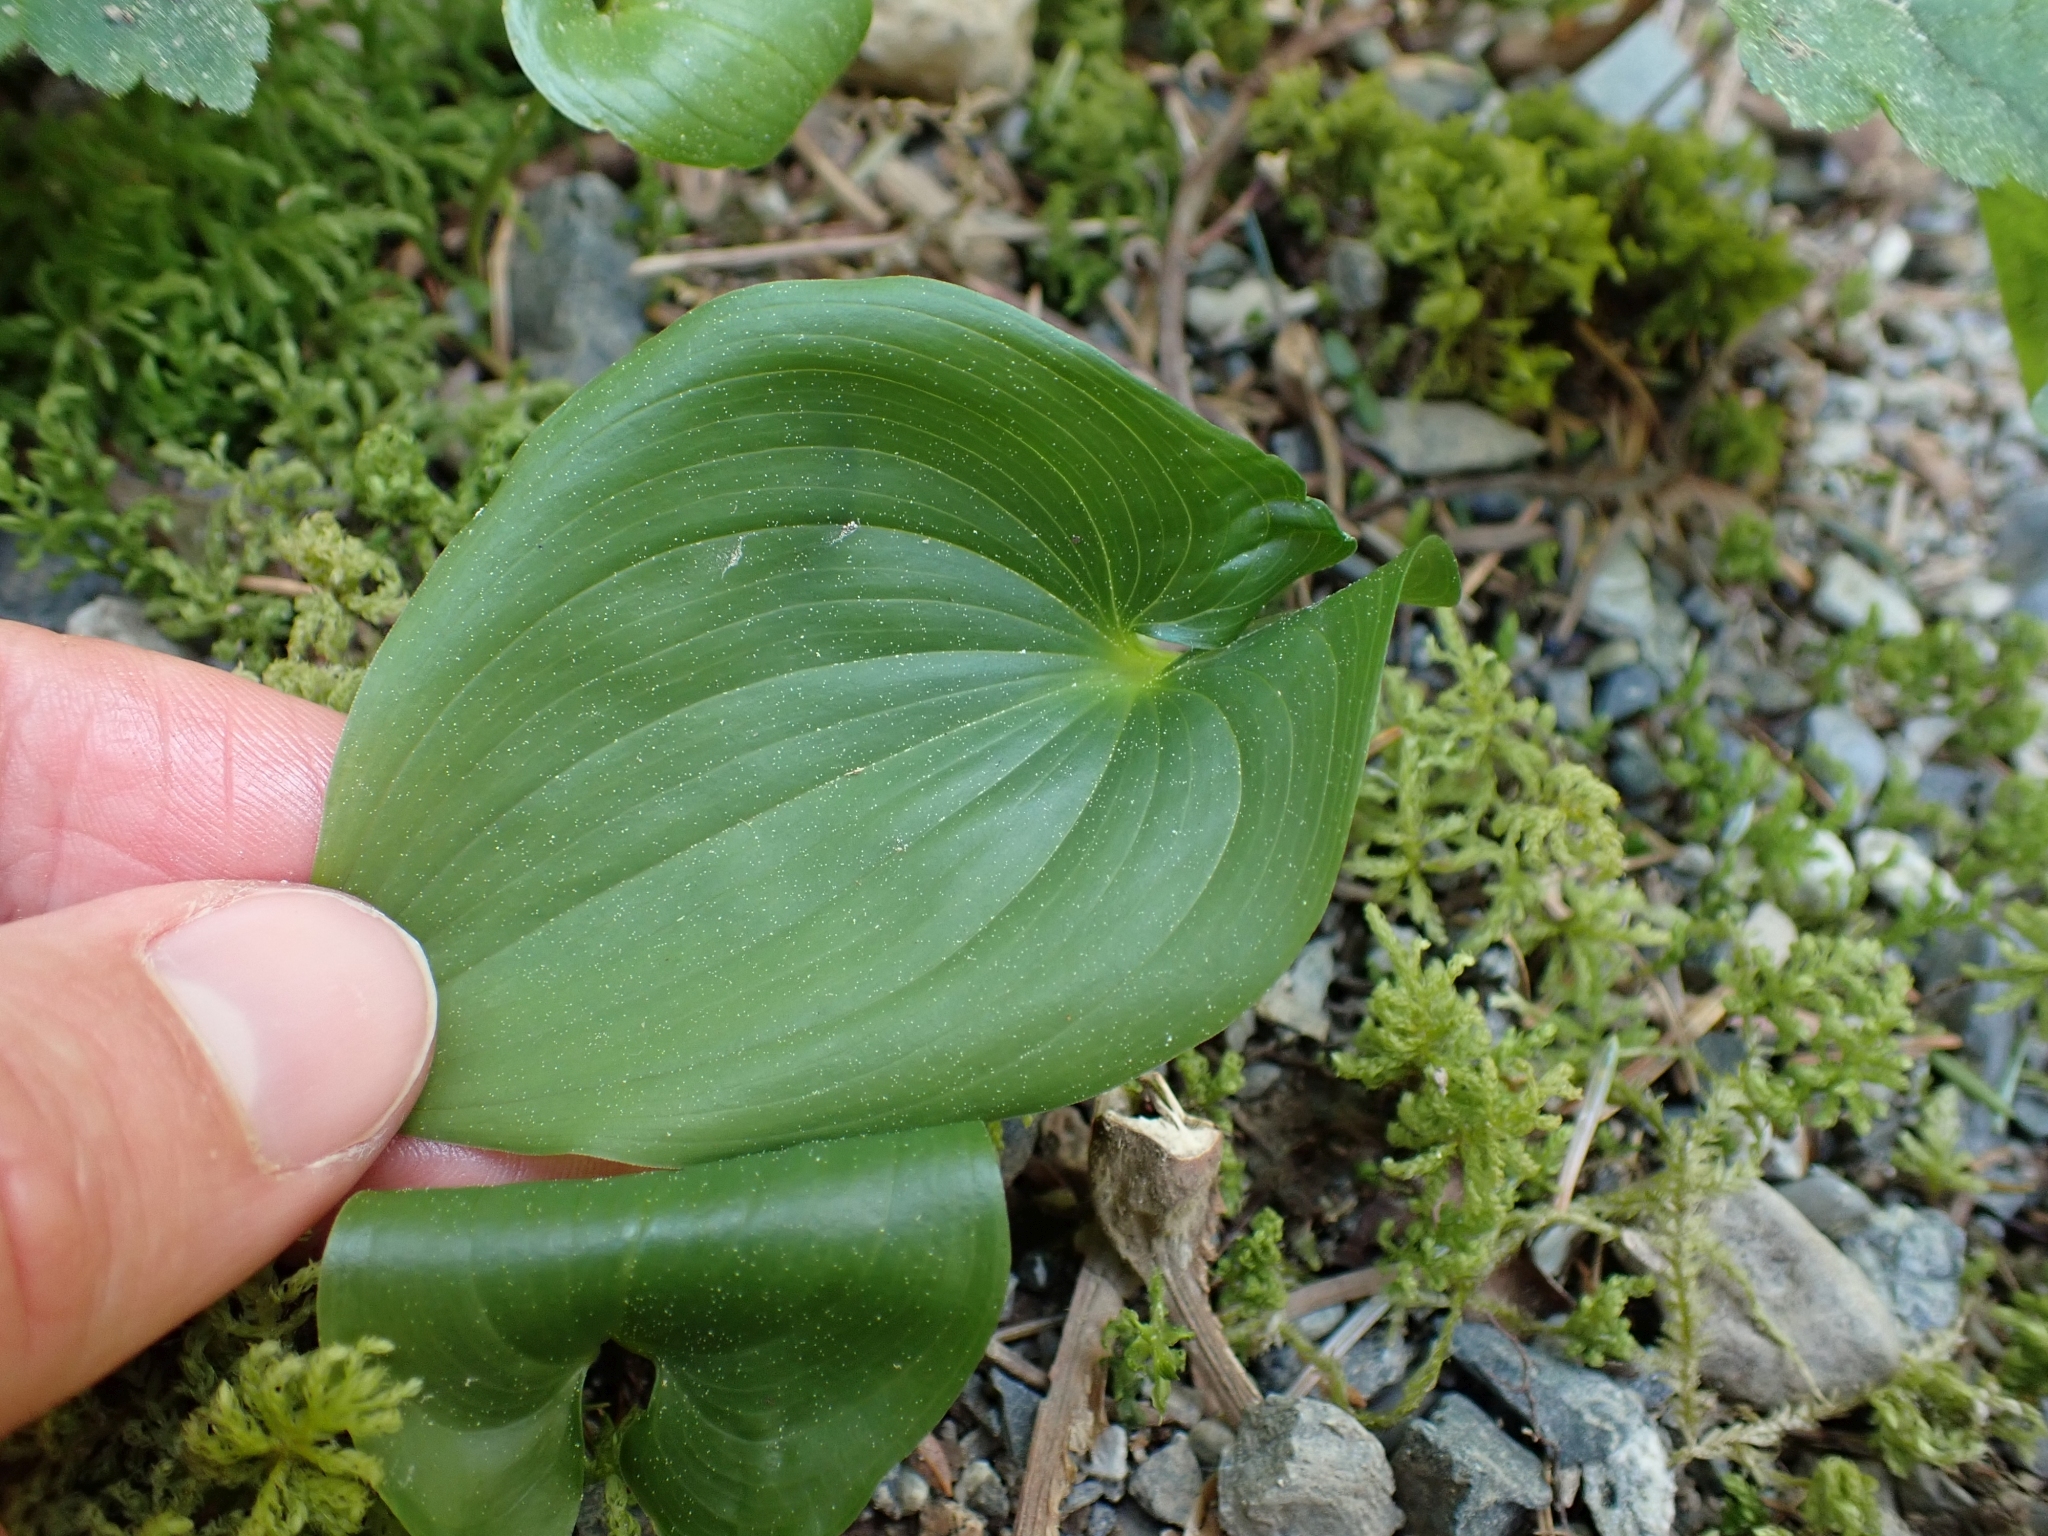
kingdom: Plantae
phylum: Tracheophyta
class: Liliopsida
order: Asparagales
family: Asparagaceae
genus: Maianthemum
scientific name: Maianthemum dilatatum
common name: False lily-of-the-valley
